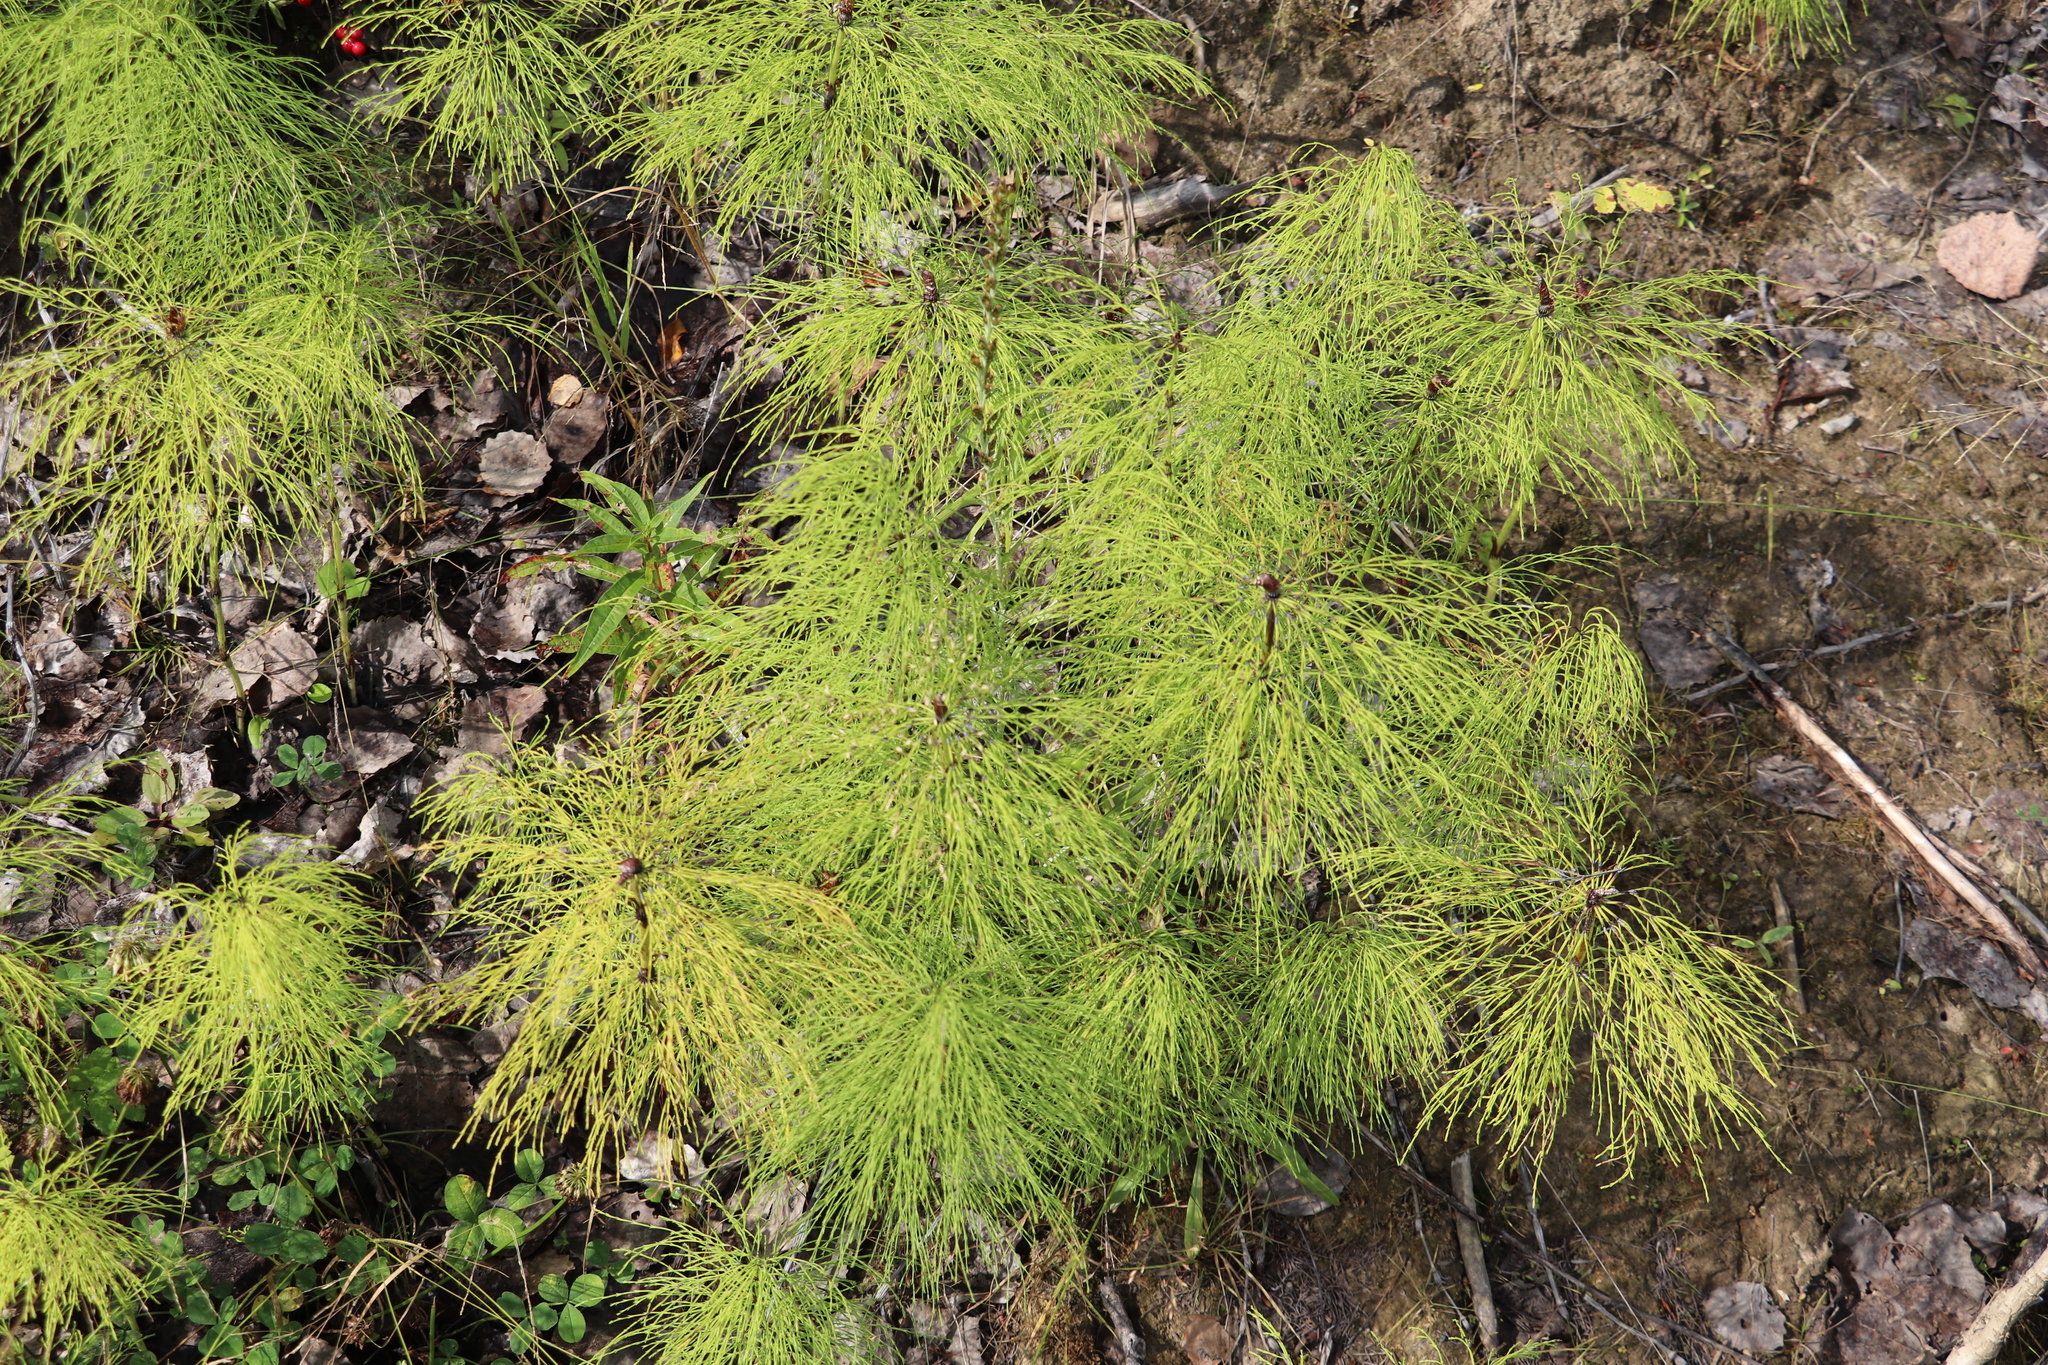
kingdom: Plantae
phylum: Tracheophyta
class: Polypodiopsida
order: Equisetales
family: Equisetaceae
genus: Equisetum
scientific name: Equisetum sylvaticum
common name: Wood horsetail
